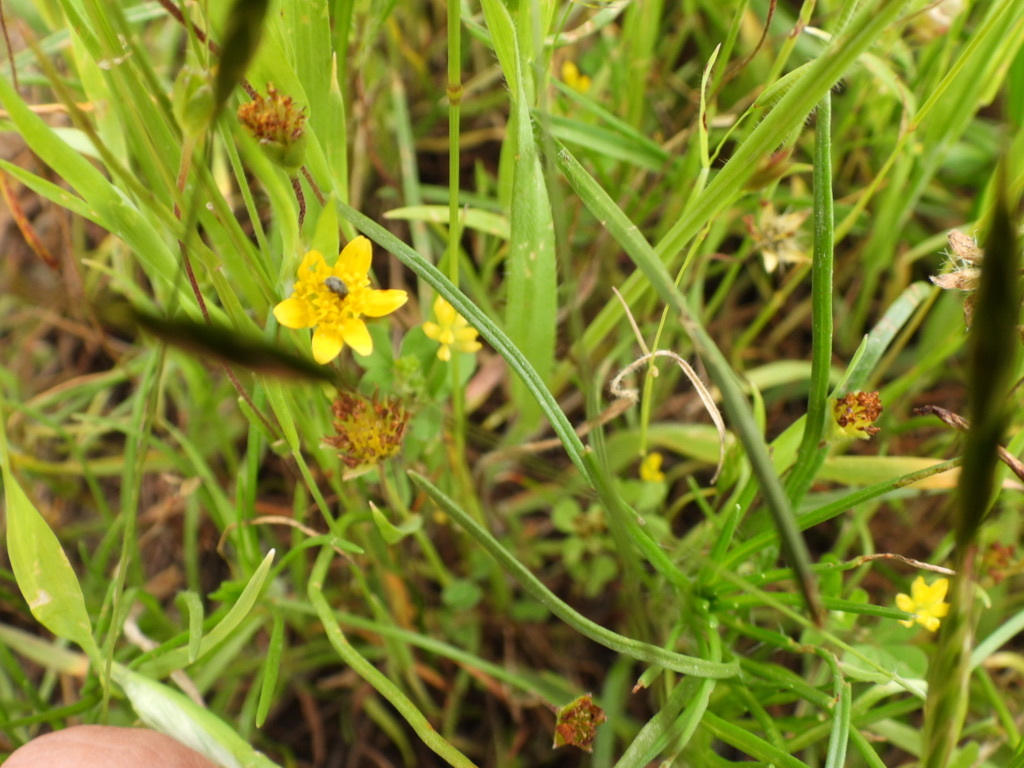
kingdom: Plantae
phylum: Tracheophyta
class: Magnoliopsida
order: Asterales
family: Asteraceae
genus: Lasthenia
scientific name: Lasthenia californica
